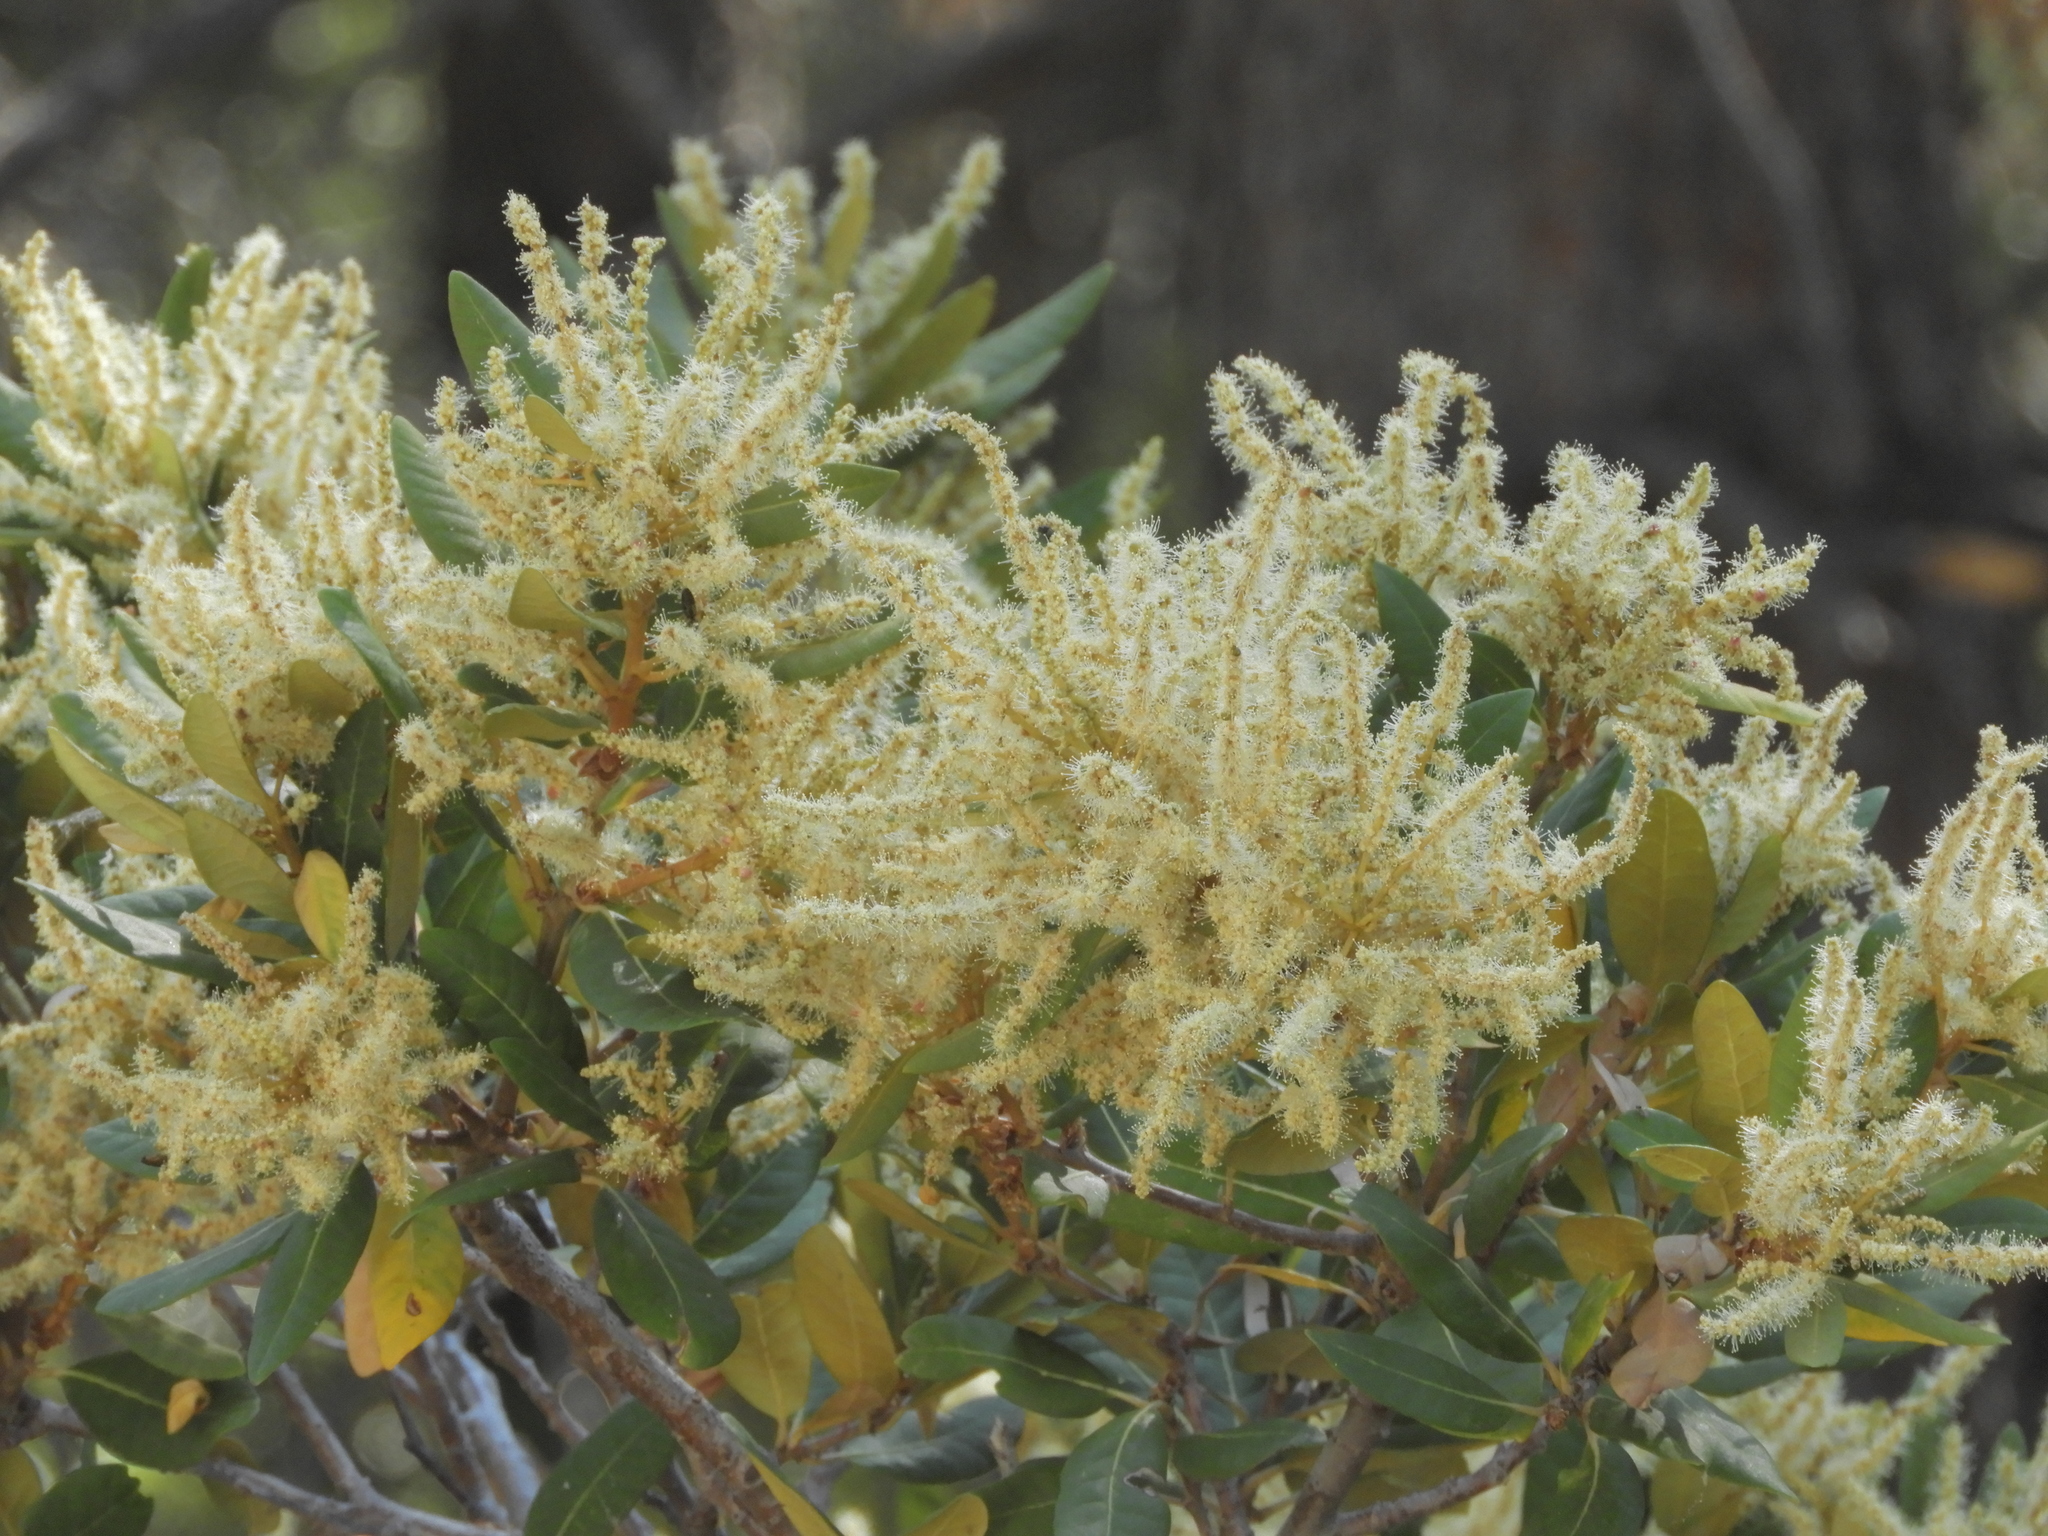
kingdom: Plantae
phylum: Tracheophyta
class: Magnoliopsida
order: Fagales
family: Fagaceae
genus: Chrysolepis
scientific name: Chrysolepis sempervirens
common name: Bush chinquapin
